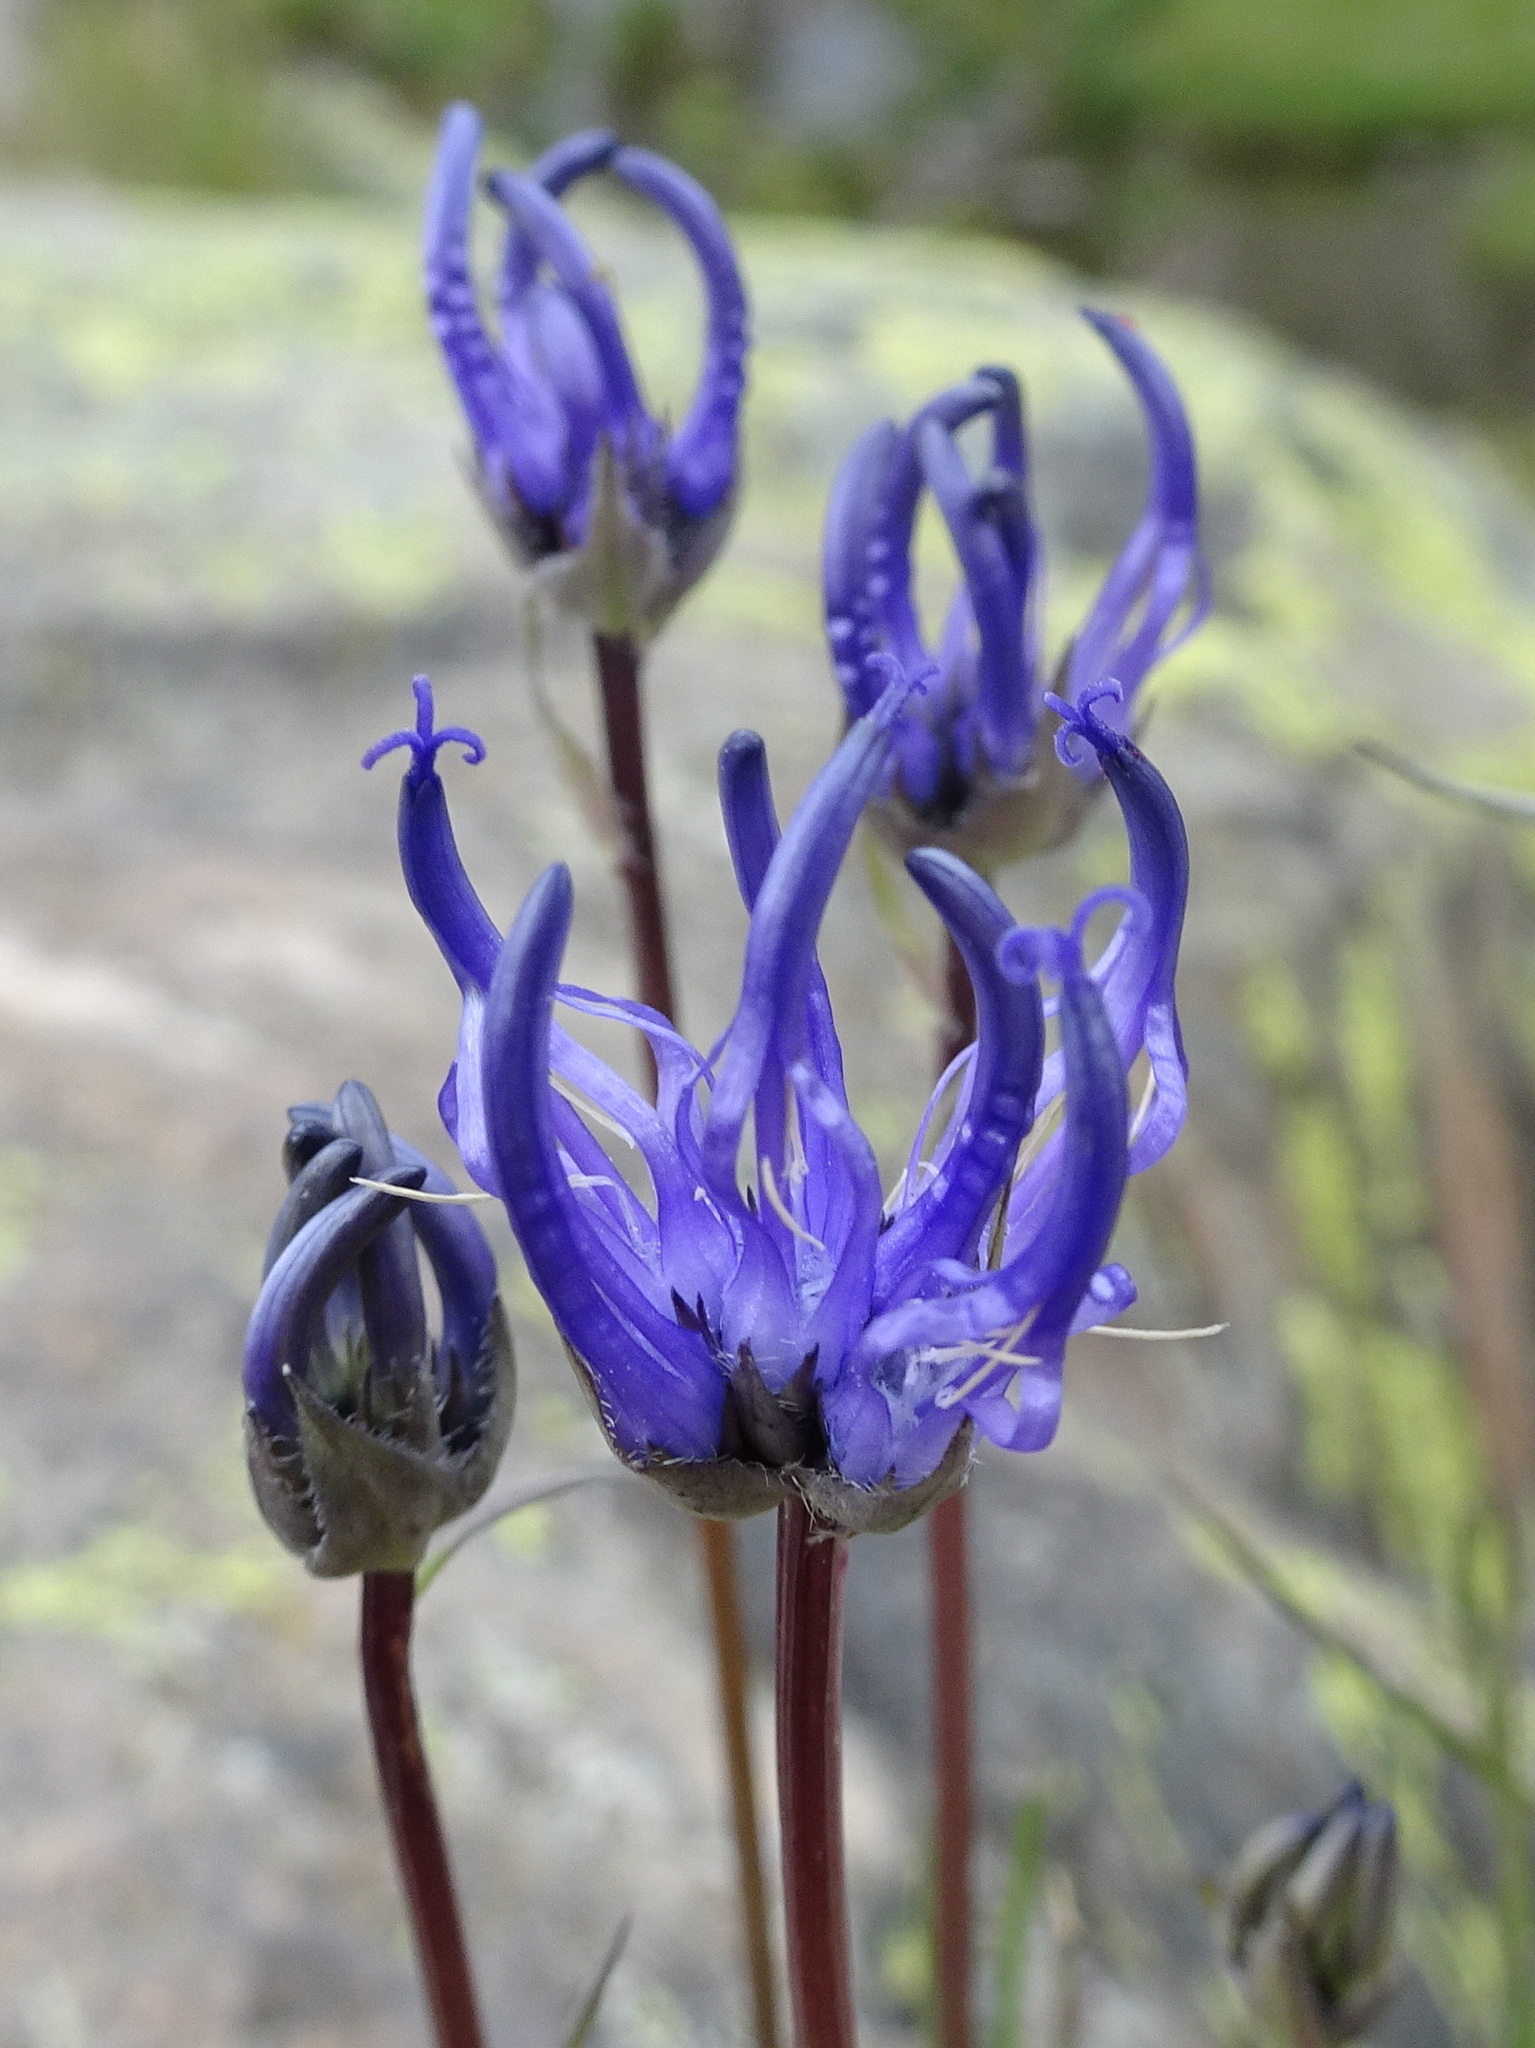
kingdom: Plantae
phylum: Tracheophyta
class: Magnoliopsida
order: Asterales
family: Campanulaceae
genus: Phyteuma
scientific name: Phyteuma hemisphaericum
